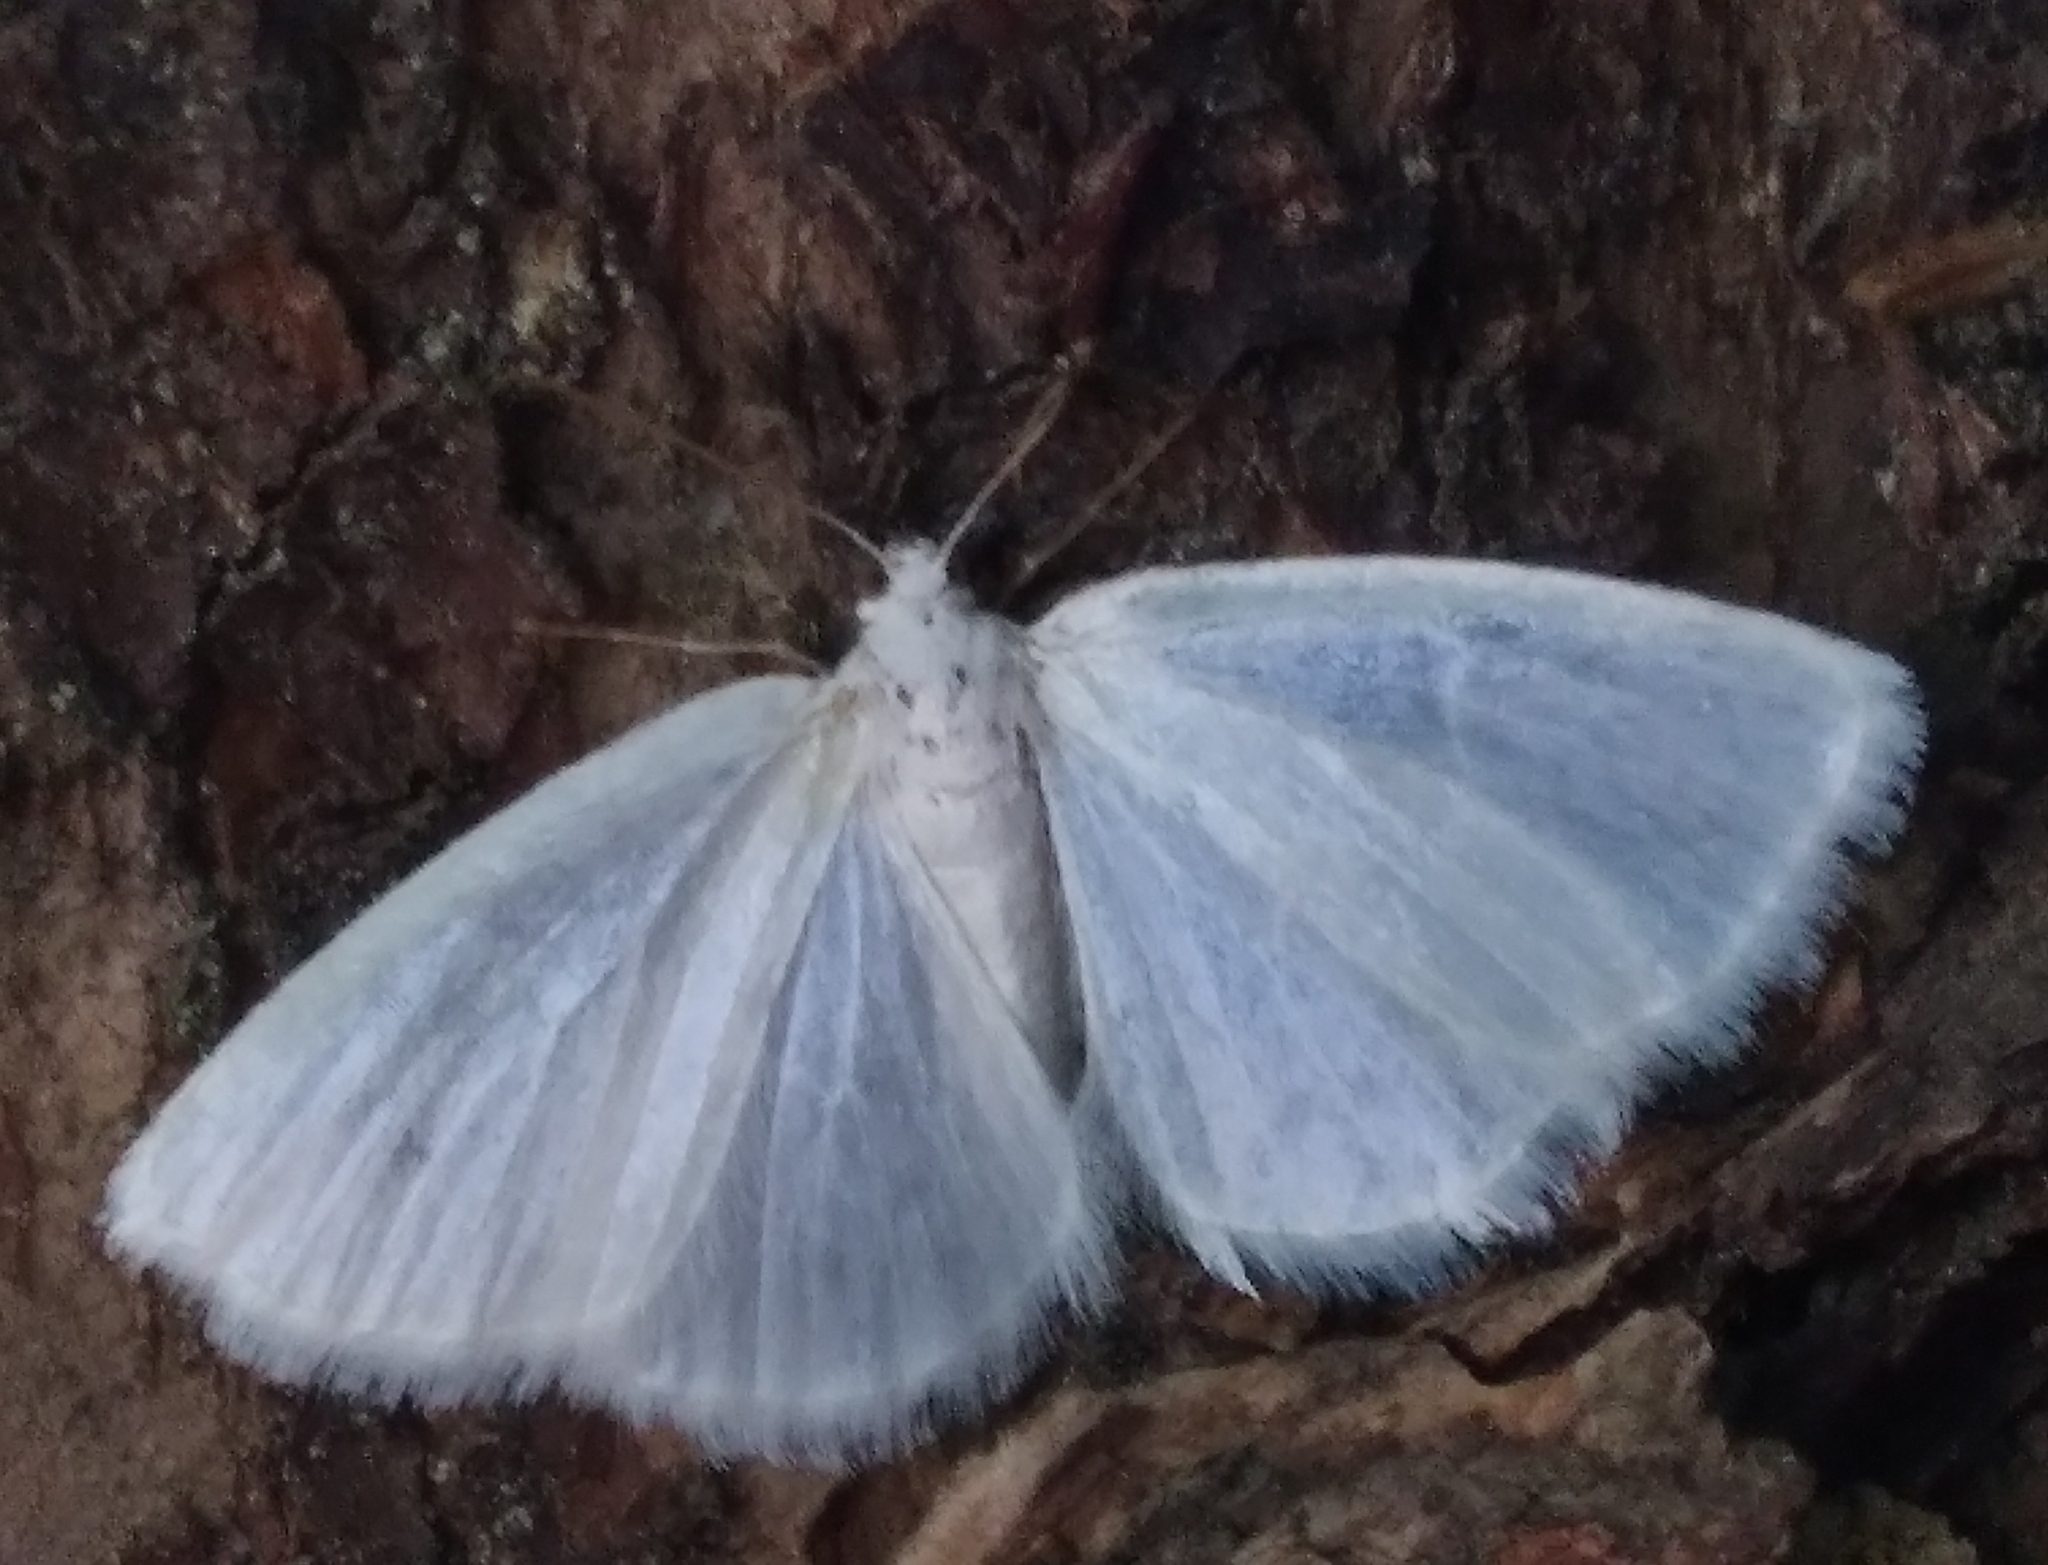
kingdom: Animalia
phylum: Arthropoda
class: Insecta
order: Lepidoptera
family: Geometridae
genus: Lomographa
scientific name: Lomographa vestaliata
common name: White spring moth
